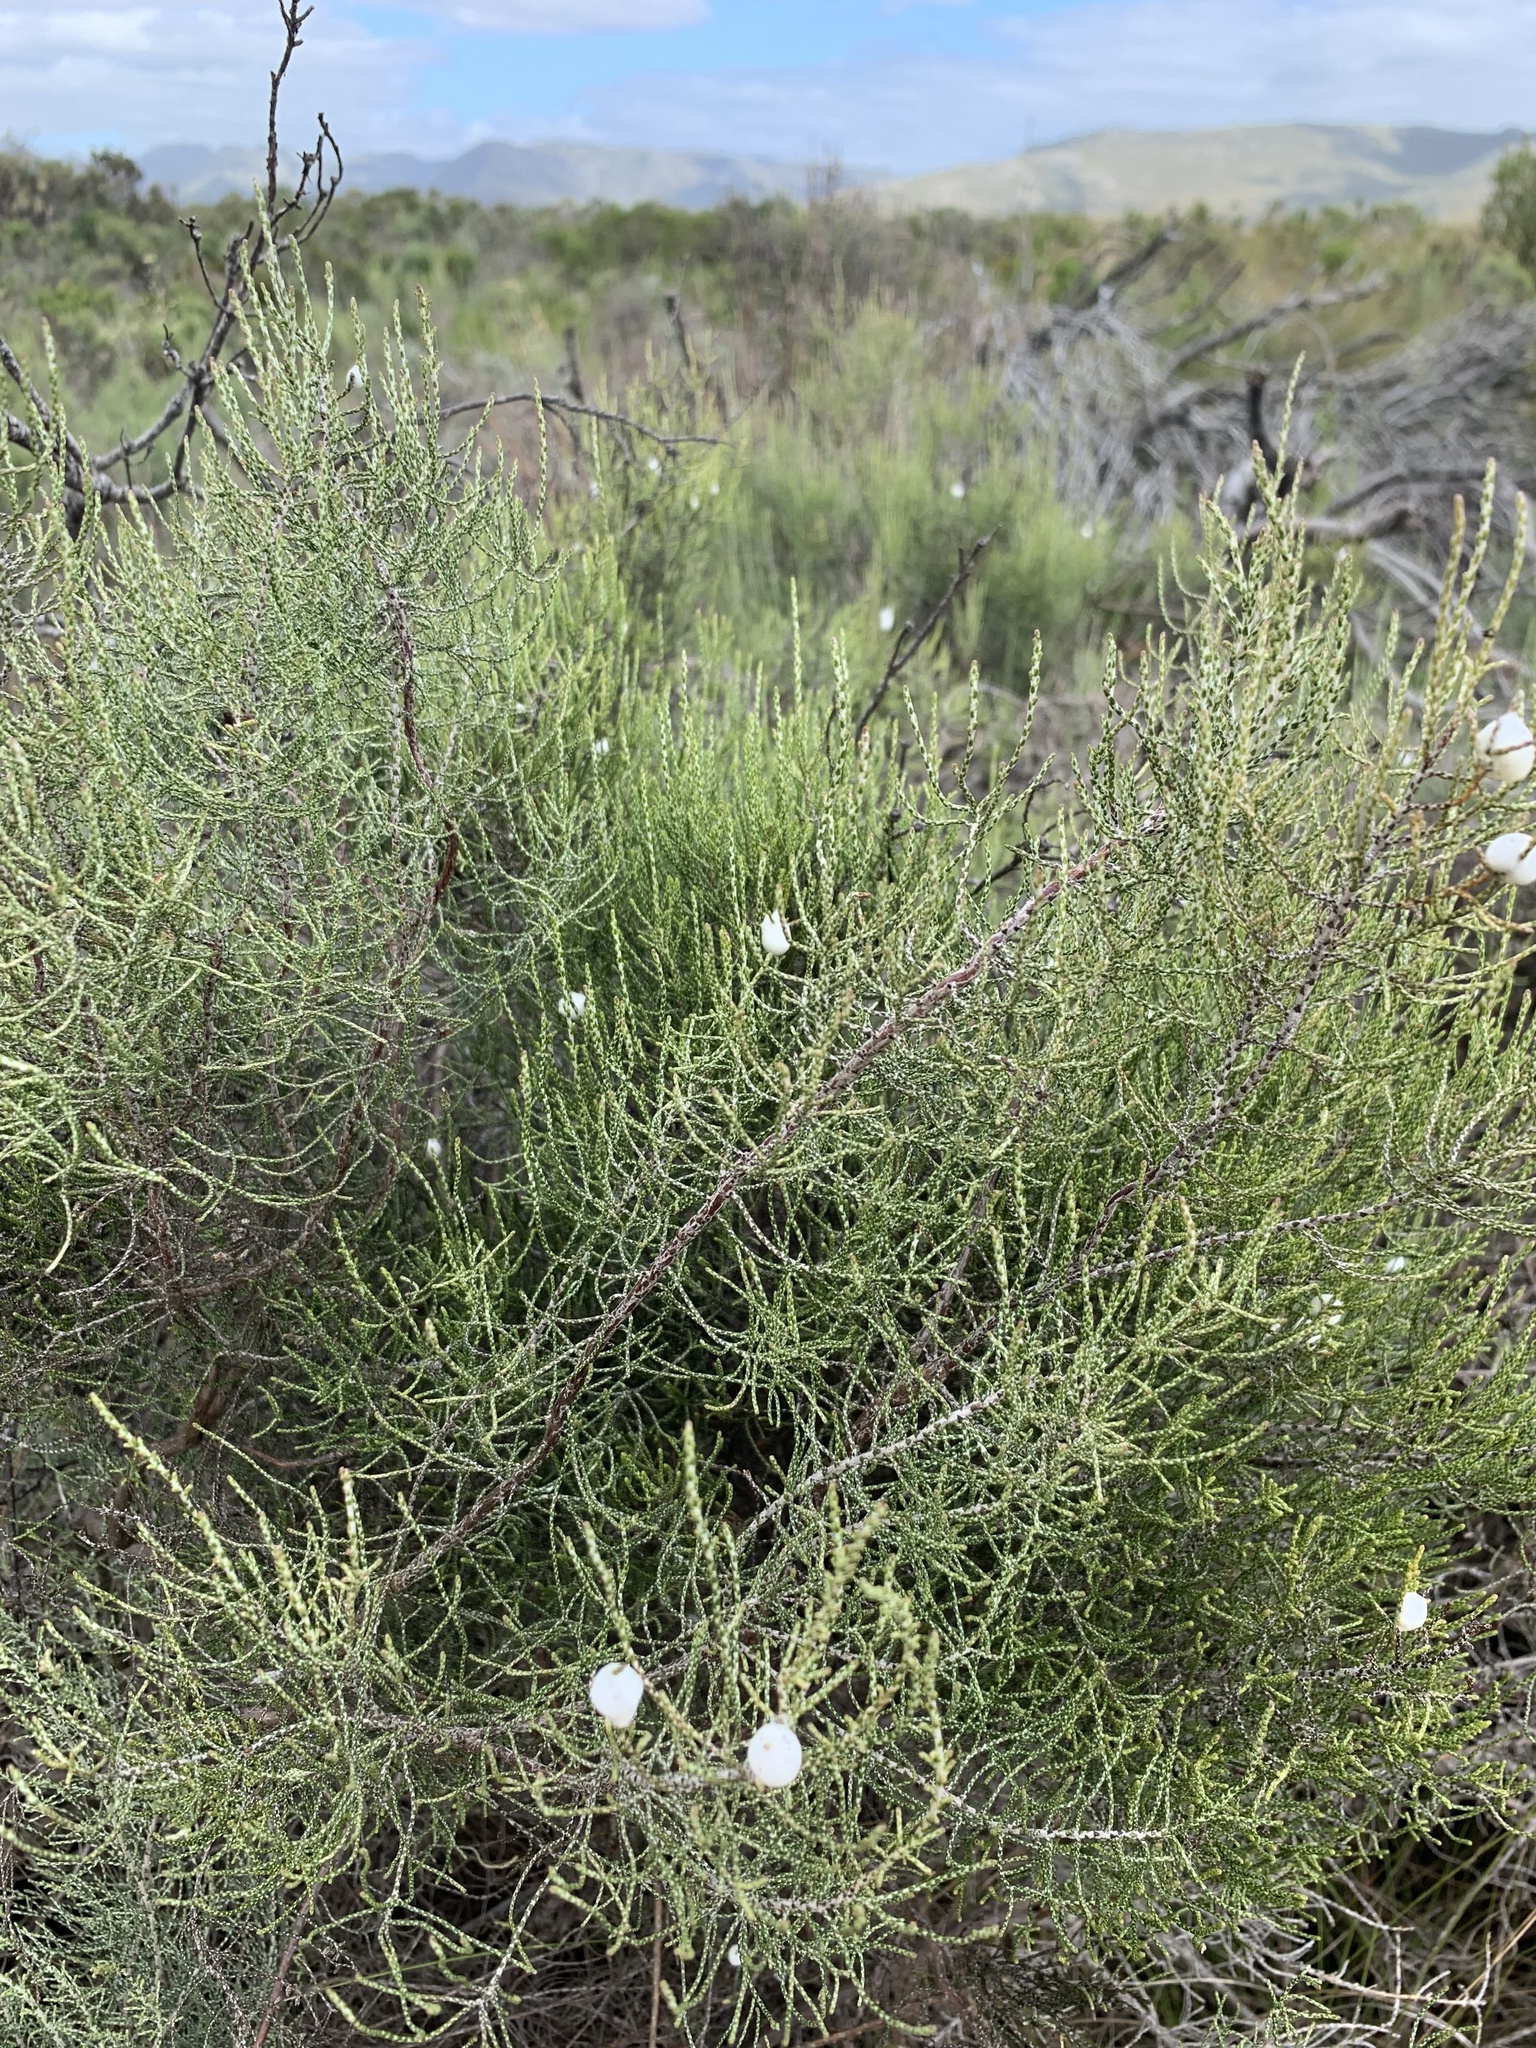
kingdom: Plantae
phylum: Tracheophyta
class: Magnoliopsida
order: Asterales
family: Asteraceae
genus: Dicerothamnus
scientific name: Dicerothamnus rhinocerotis
